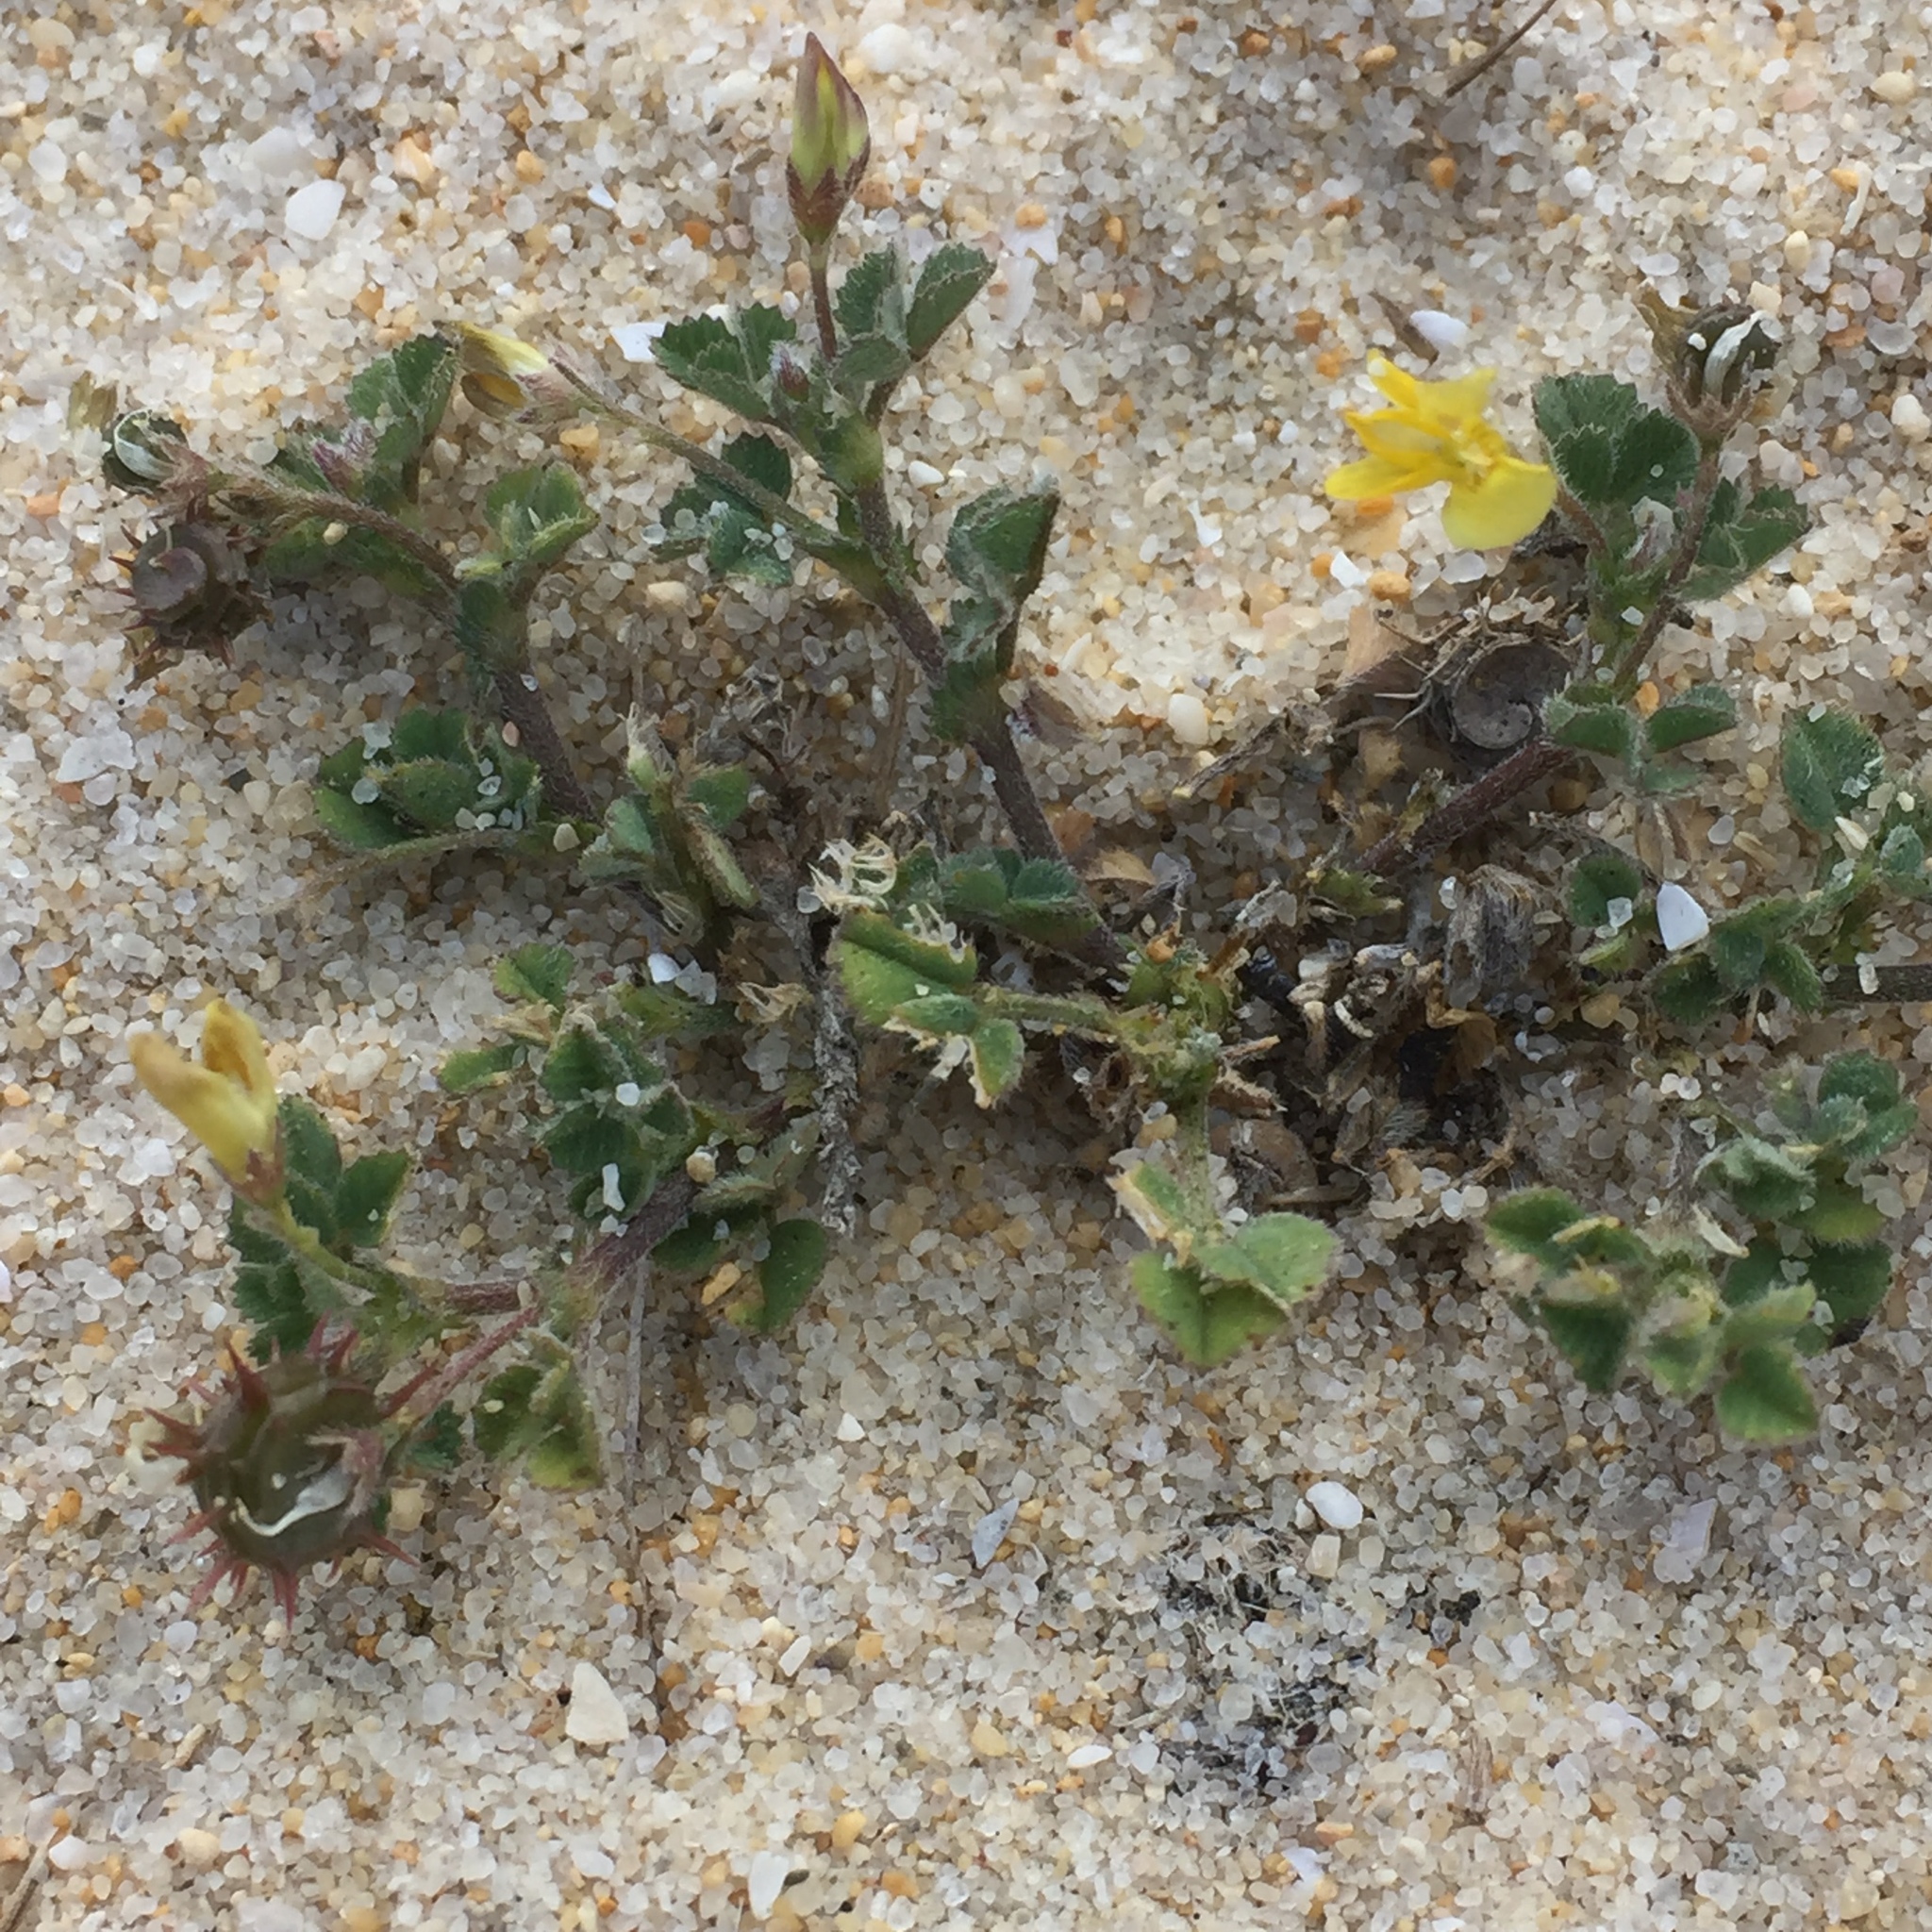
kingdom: Plantae
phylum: Tracheophyta
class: Magnoliopsida
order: Fabales
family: Fabaceae
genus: Medicago
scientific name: Medicago littoralis
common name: Shore medick
